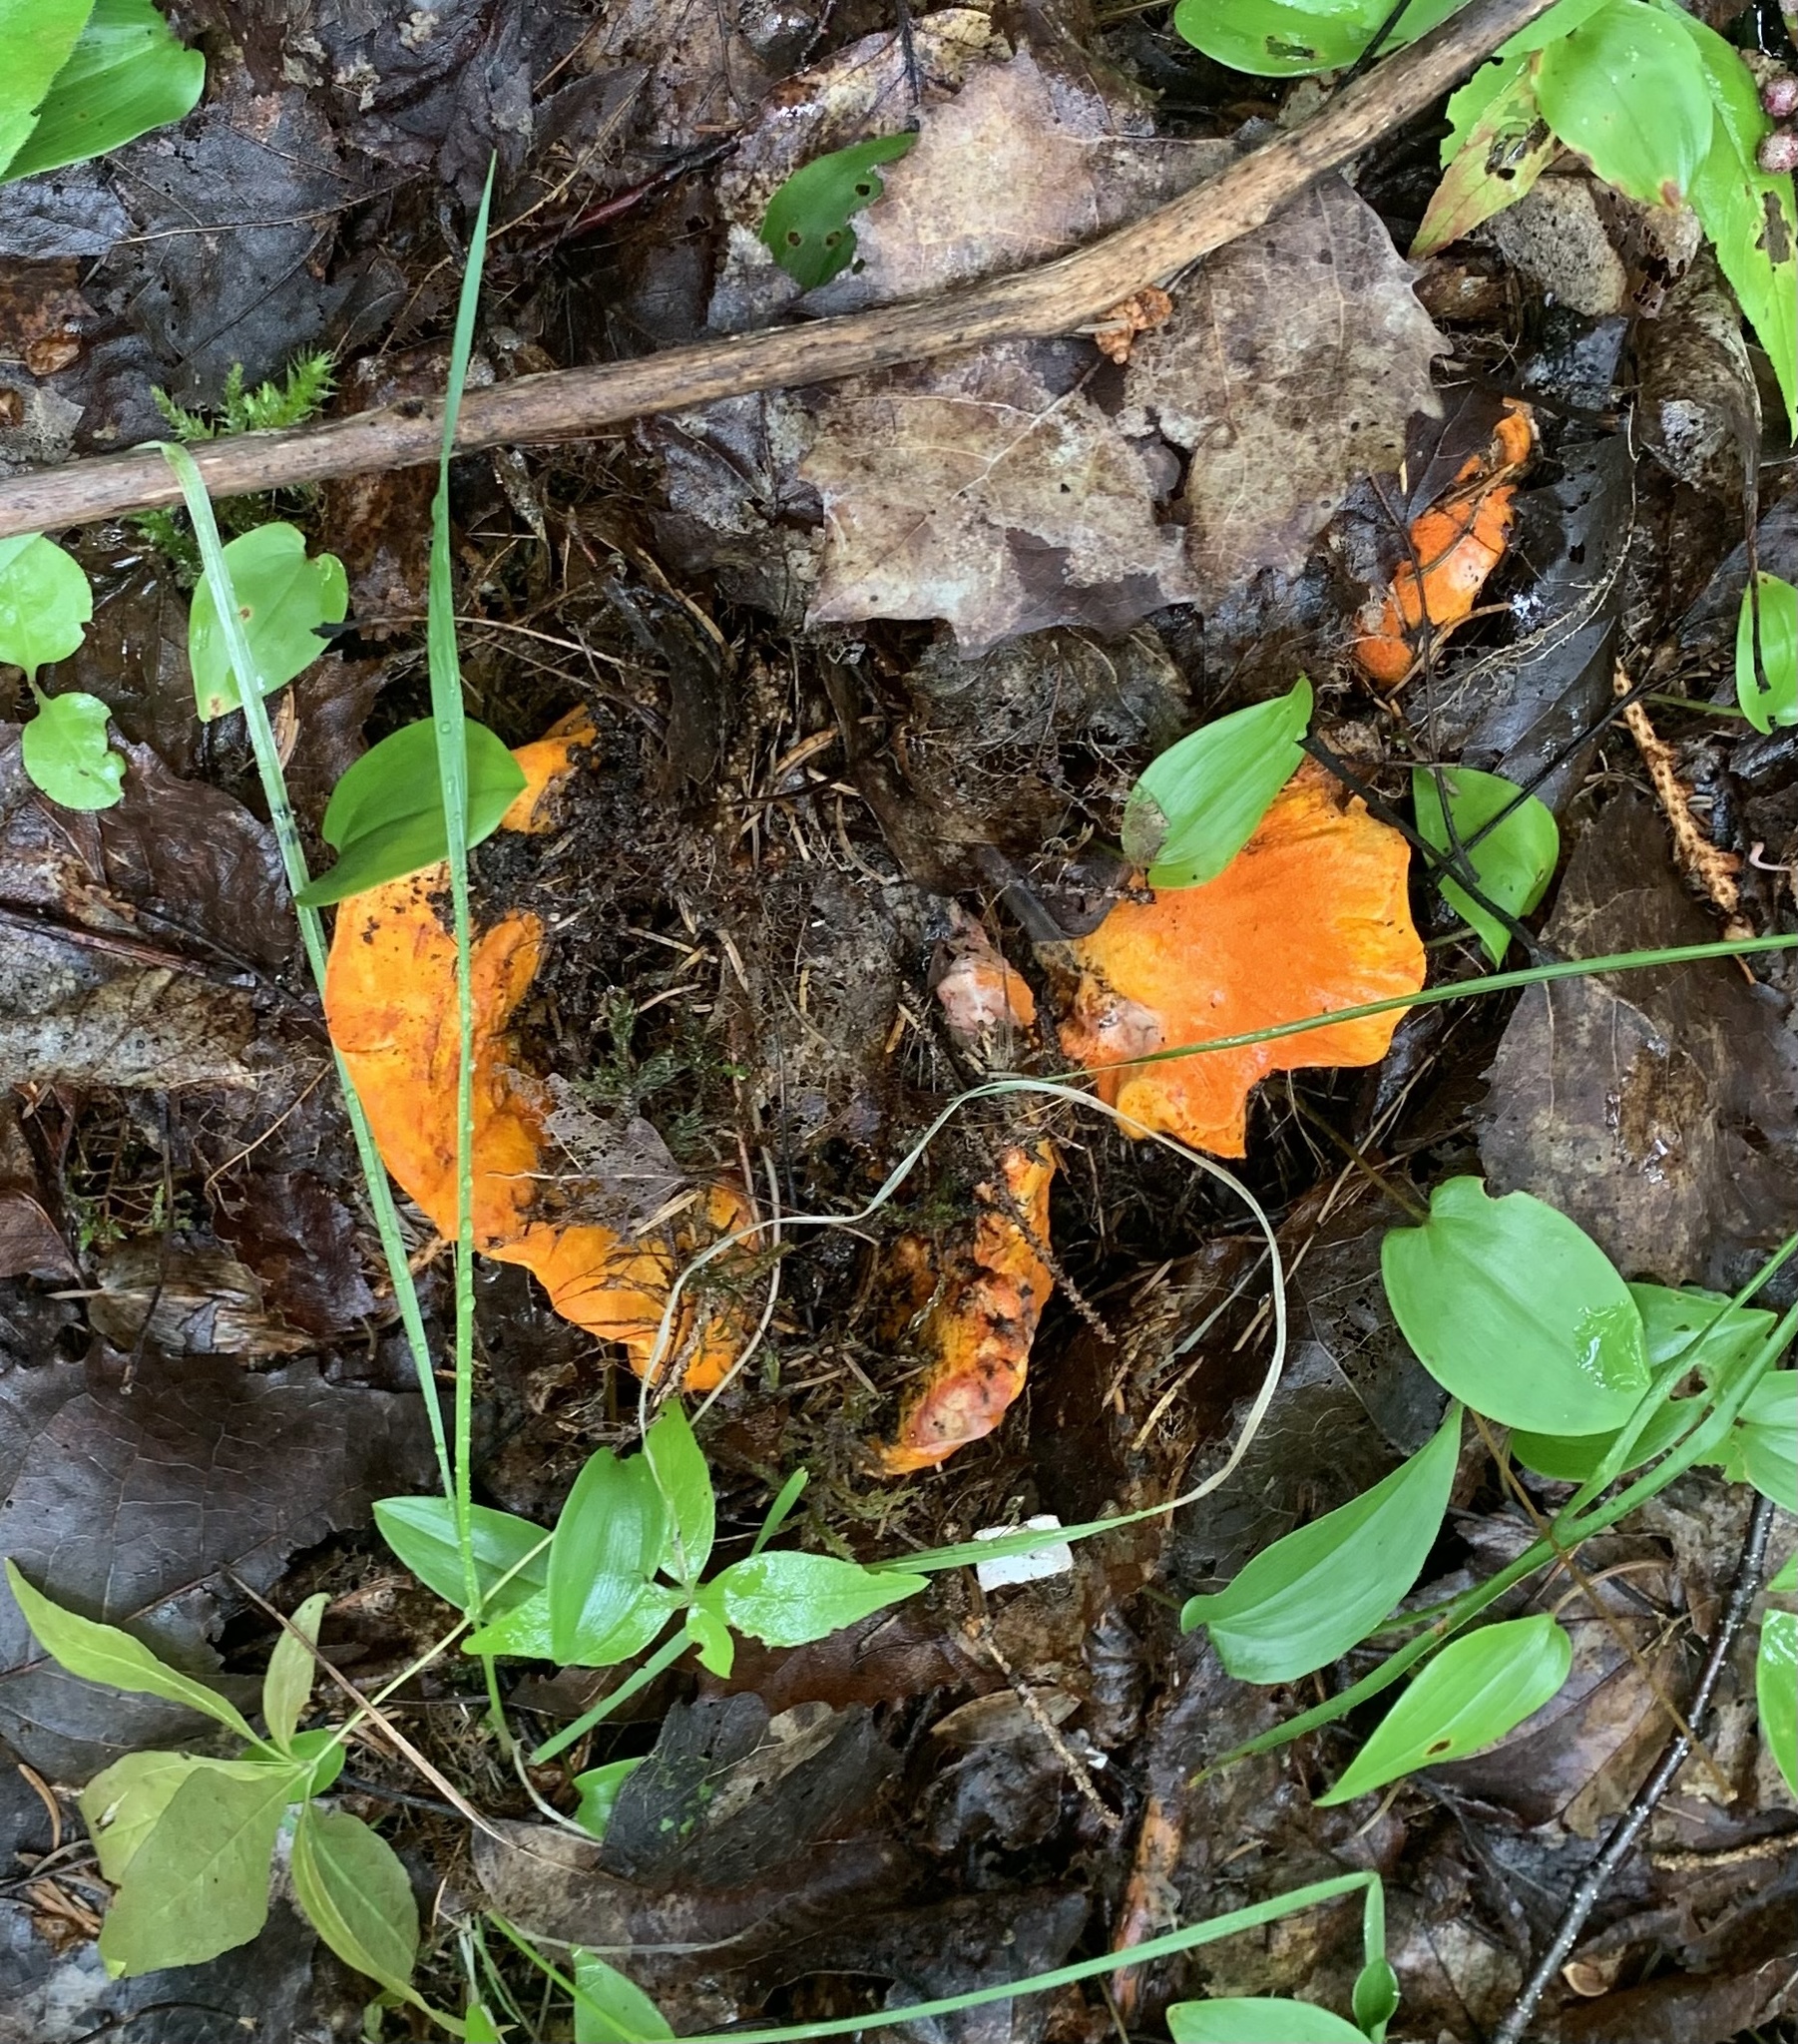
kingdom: Fungi
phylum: Ascomycota
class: Sordariomycetes
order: Hypocreales
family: Hypocreaceae
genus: Hypomyces
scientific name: Hypomyces lactifluorum
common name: Lobster mushroom
